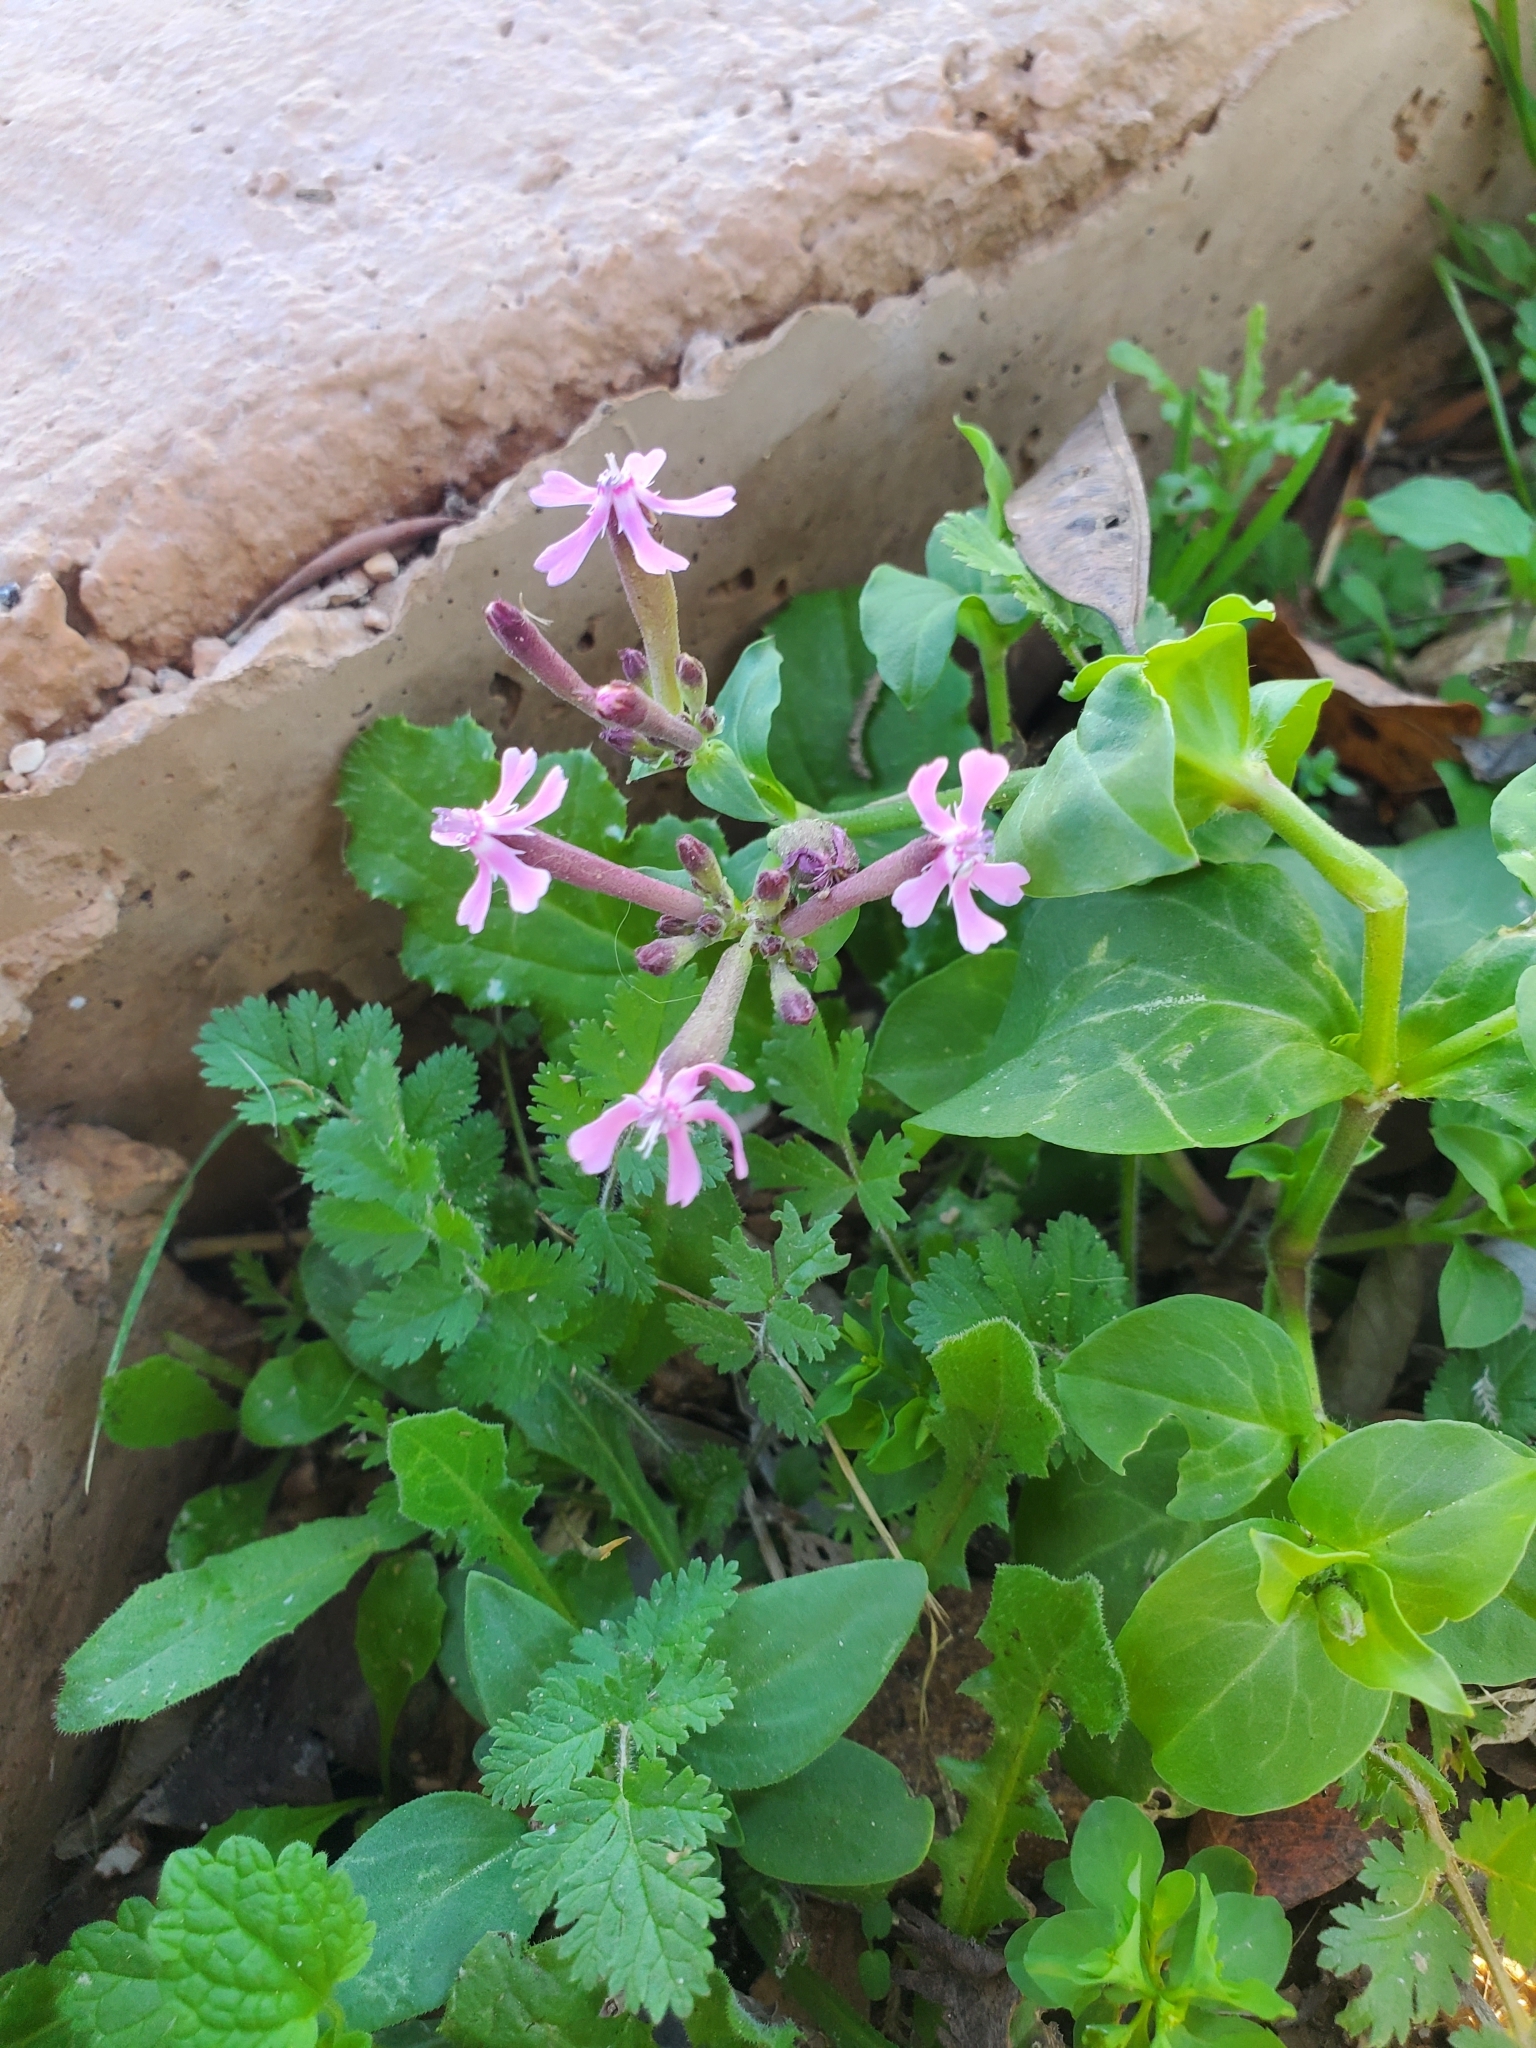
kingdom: Plantae
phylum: Tracheophyta
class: Magnoliopsida
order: Caryophyllales
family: Caryophyllaceae
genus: Silene
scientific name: Silene aegyptiaca
